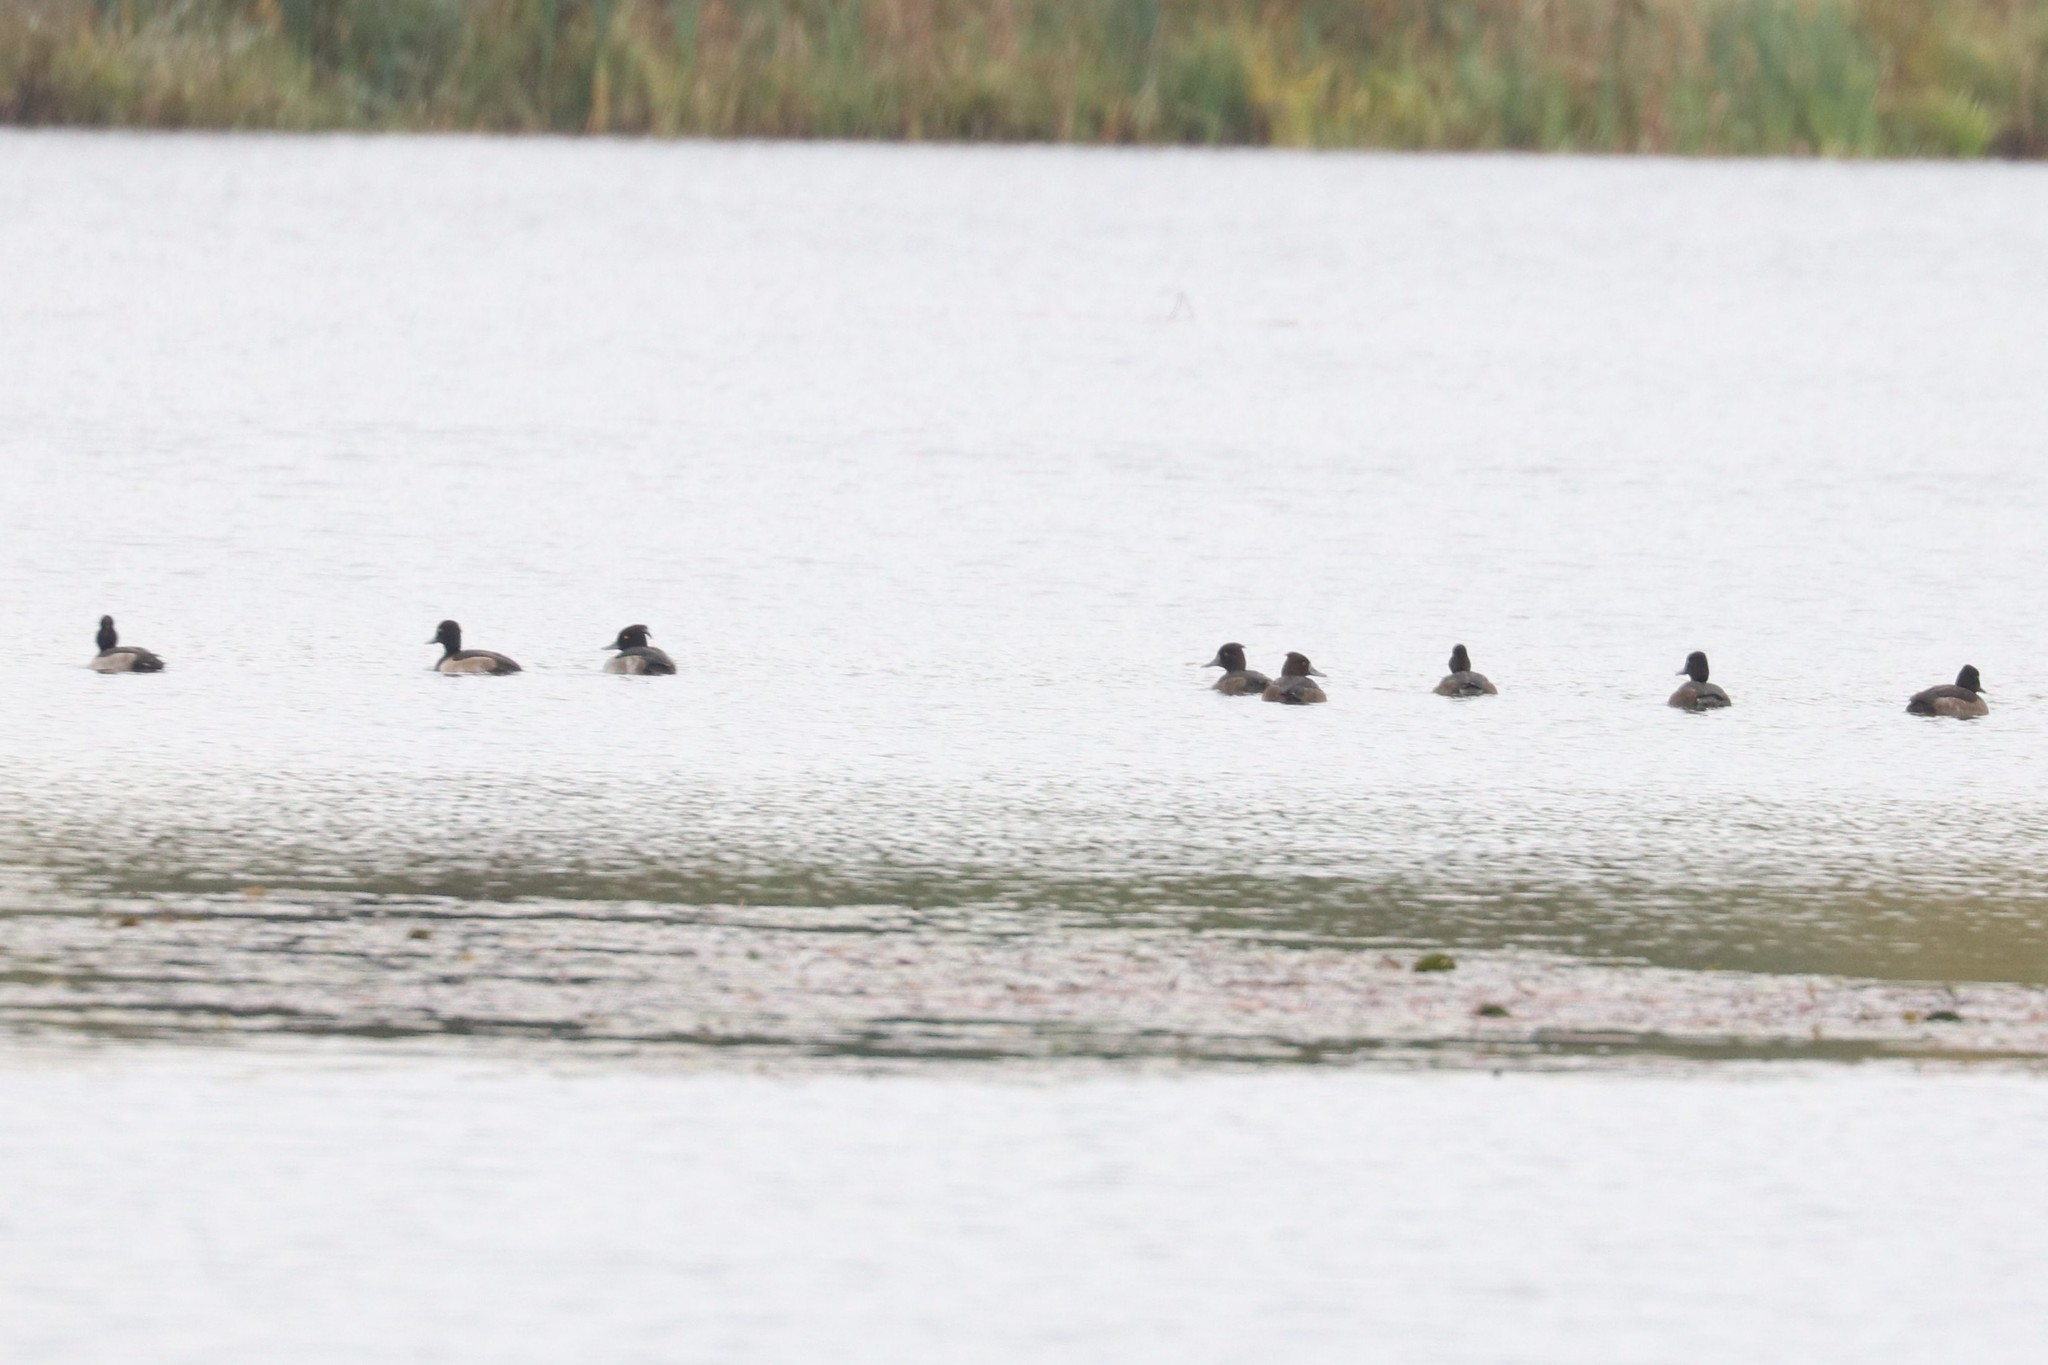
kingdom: Animalia
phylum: Chordata
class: Aves
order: Anseriformes
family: Anatidae
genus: Aythya
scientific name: Aythya fuligula
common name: Tufted duck
